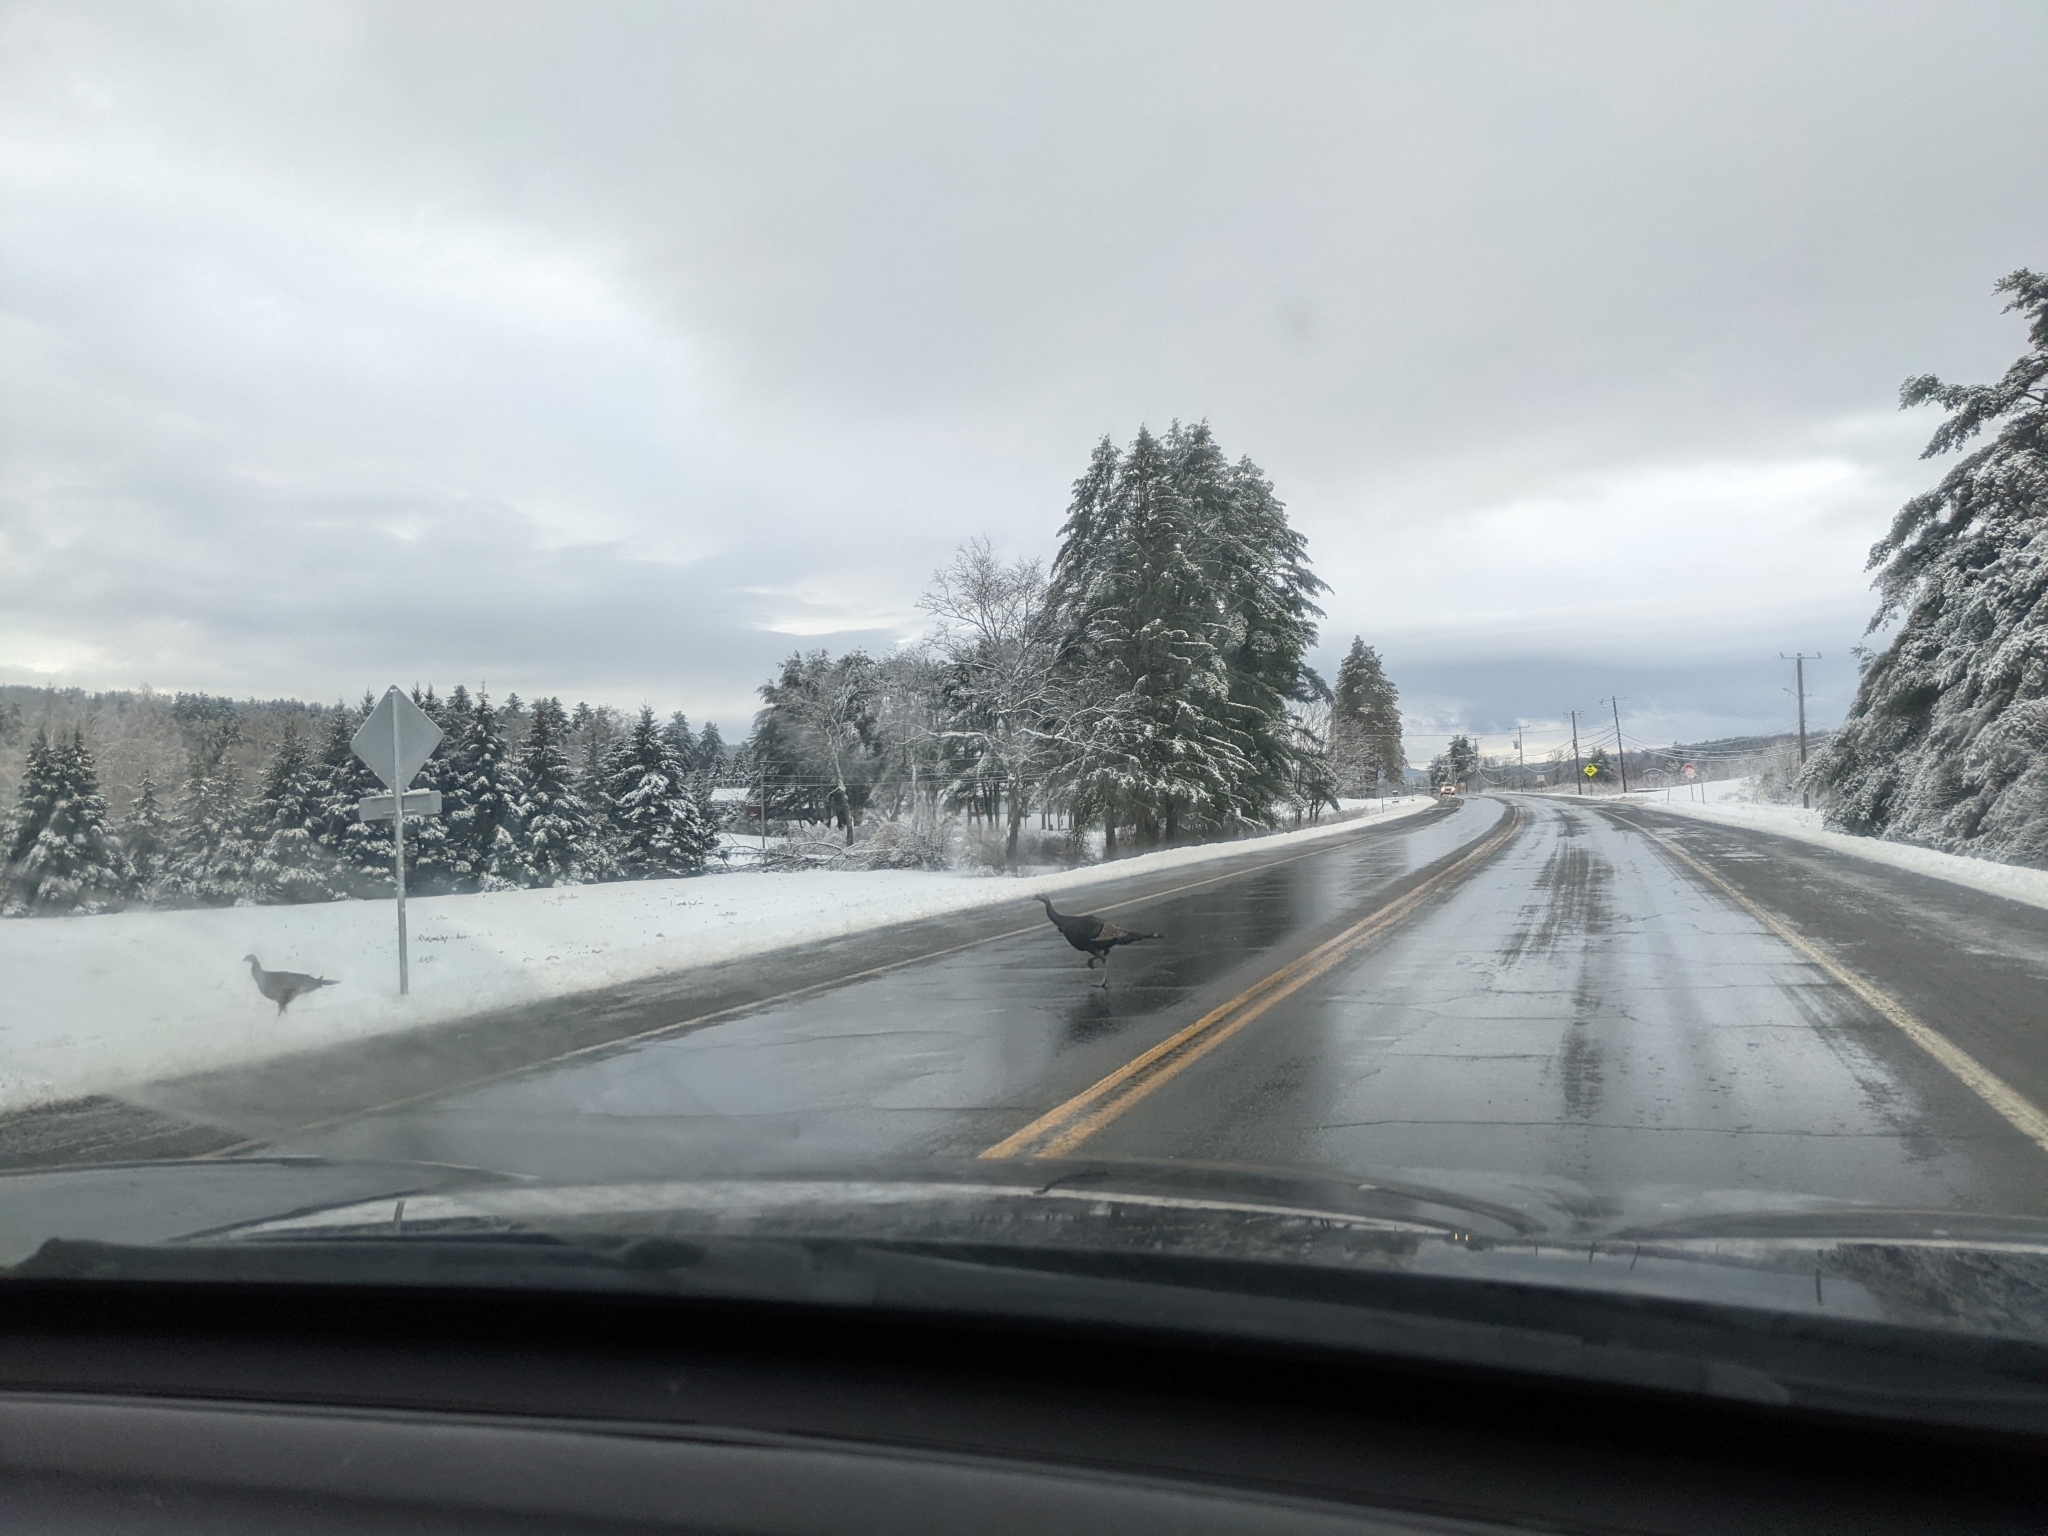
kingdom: Animalia
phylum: Chordata
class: Aves
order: Galliformes
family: Phasianidae
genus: Meleagris
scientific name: Meleagris gallopavo
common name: Wild turkey
